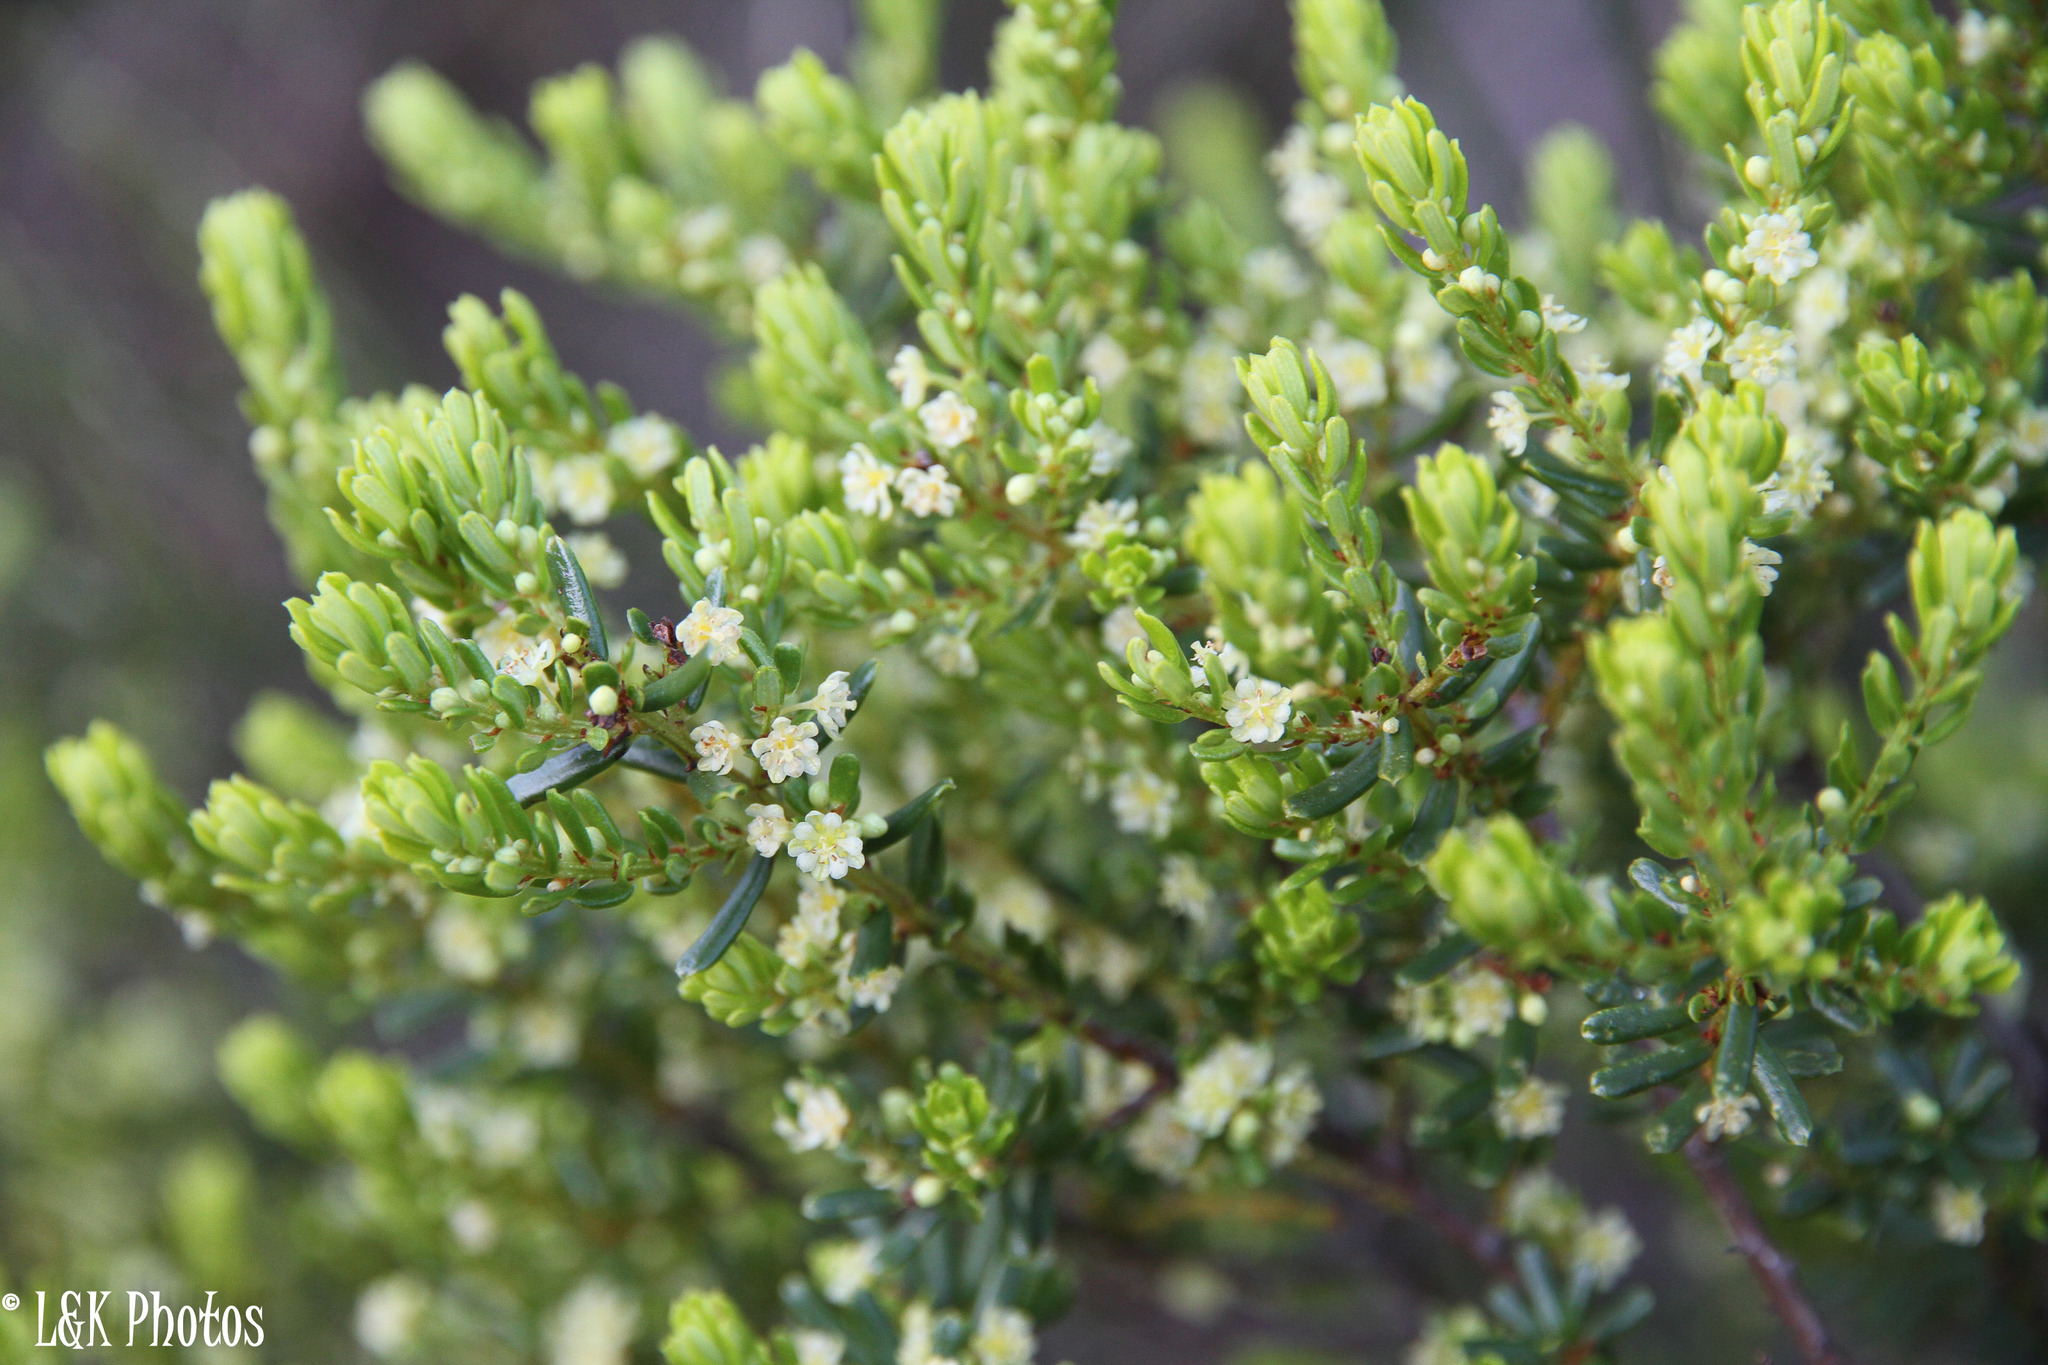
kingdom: Plantae
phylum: Tracheophyta
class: Magnoliopsida
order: Malpighiales
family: Peraceae
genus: Clutia
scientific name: Clutia polifolia
